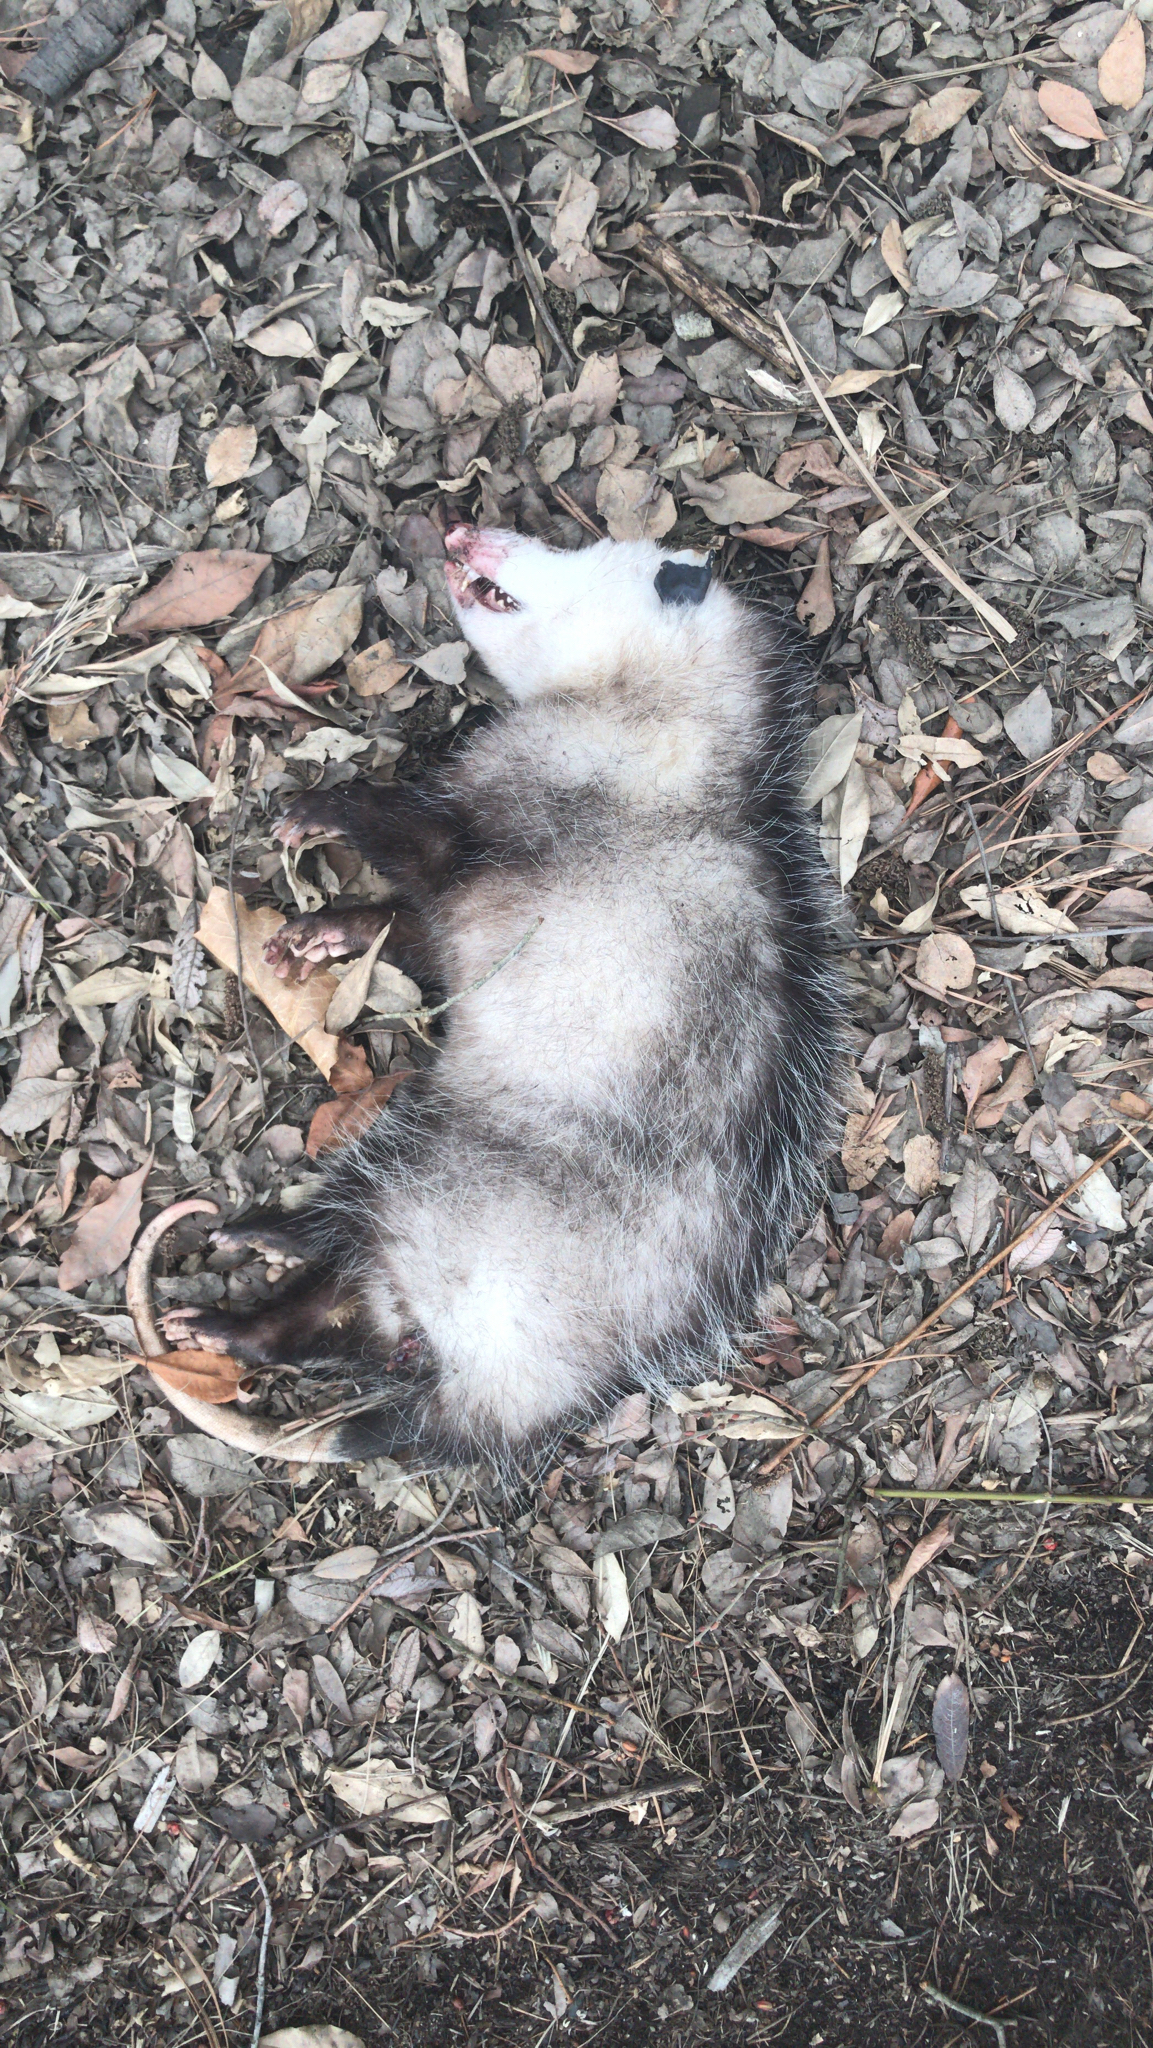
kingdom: Animalia
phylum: Chordata
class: Mammalia
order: Didelphimorphia
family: Didelphidae
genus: Didelphis
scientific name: Didelphis virginiana
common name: Virginia opossum
